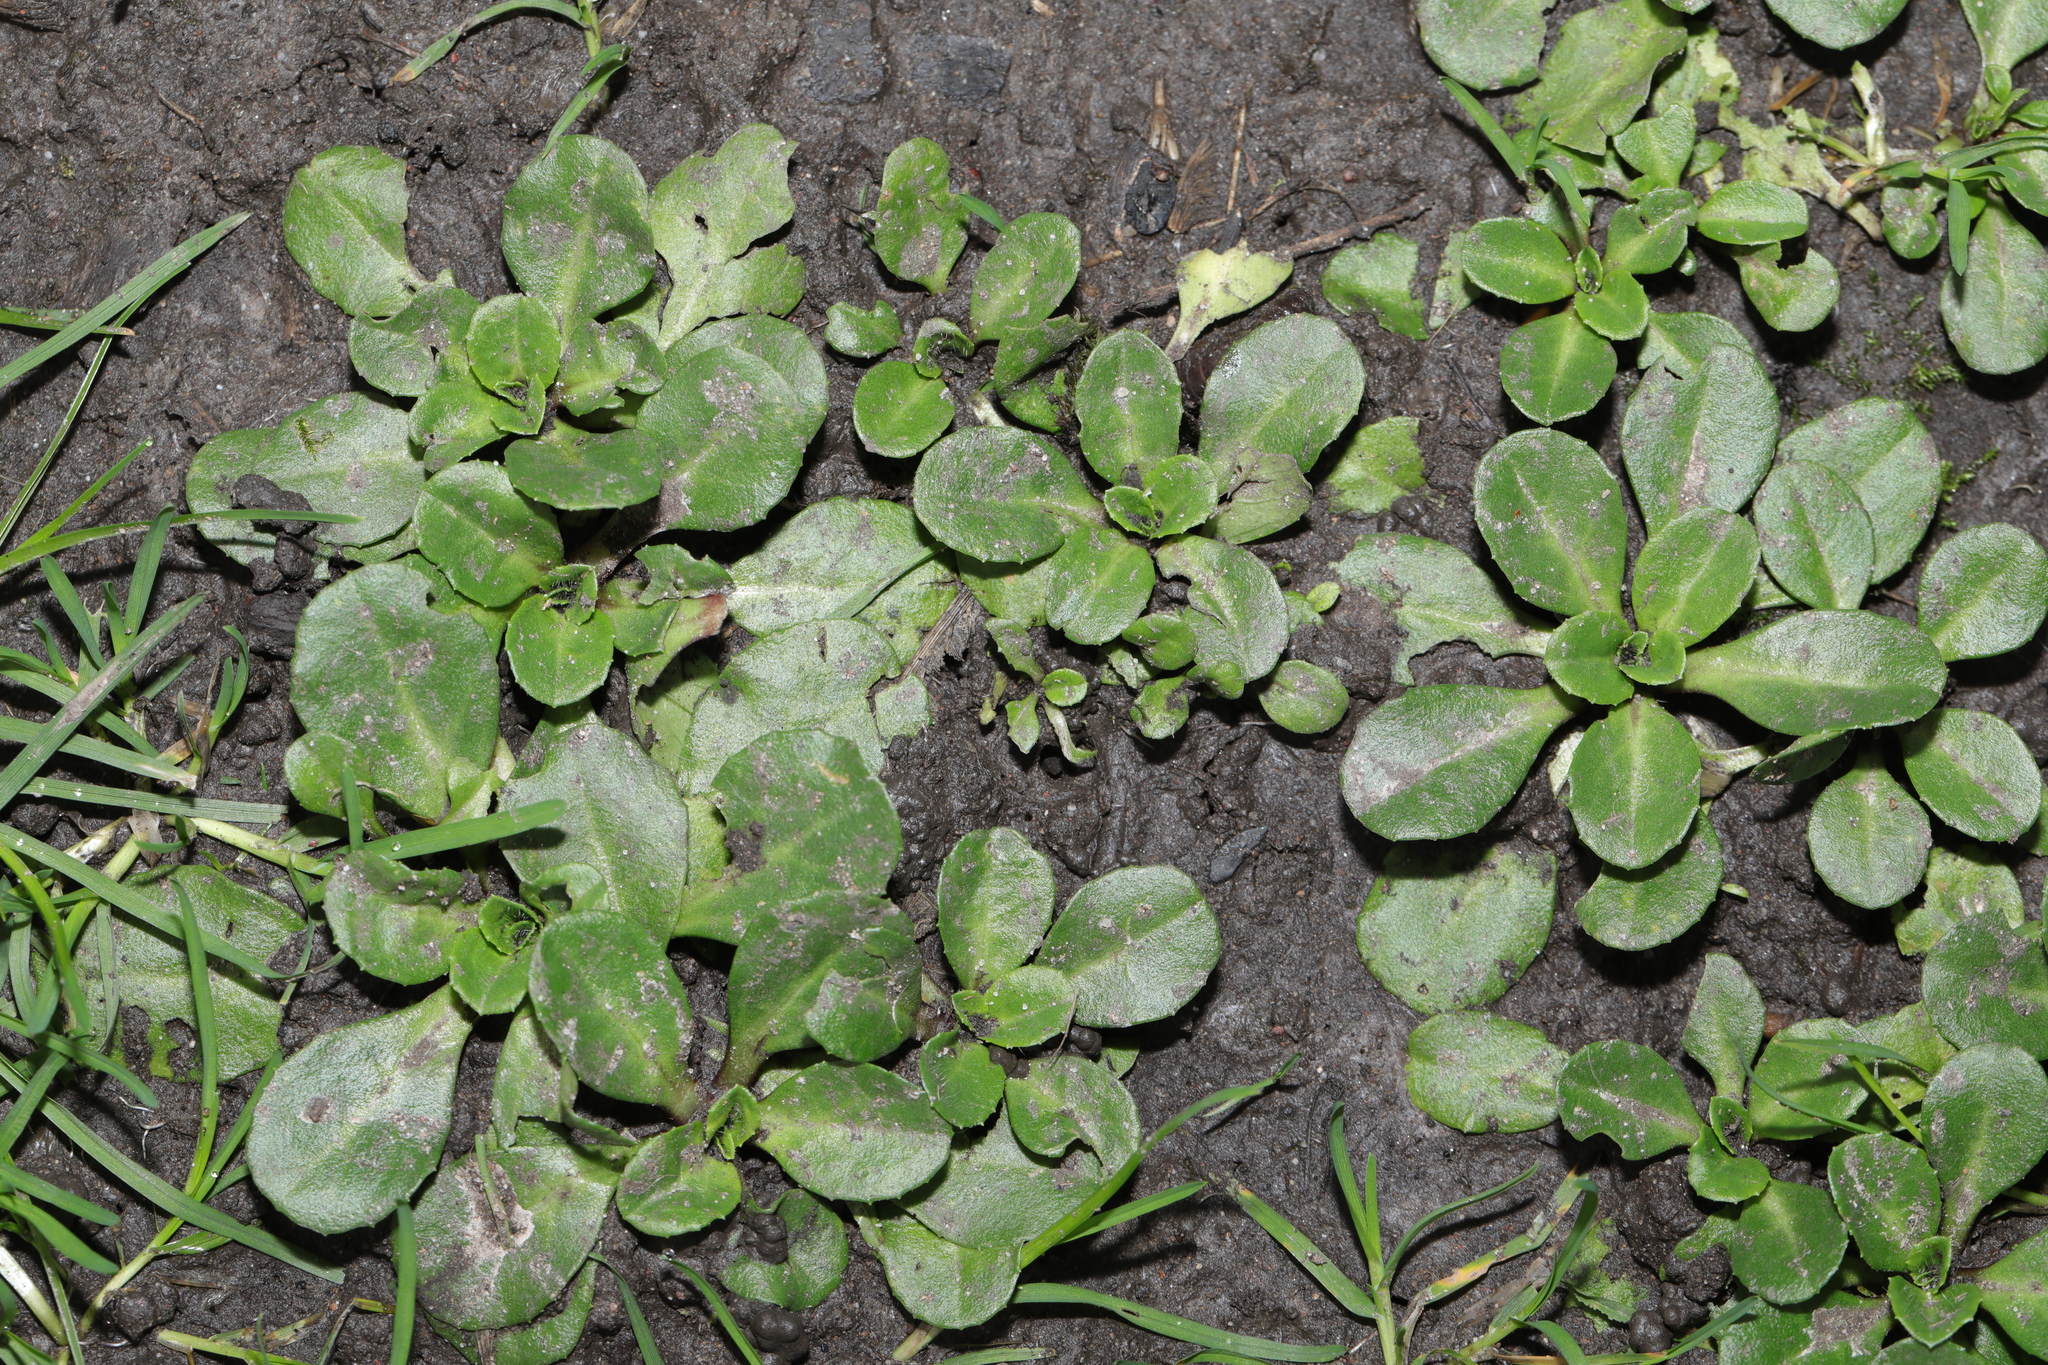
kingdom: Plantae
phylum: Tracheophyta
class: Magnoliopsida
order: Asterales
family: Asteraceae
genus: Bellis
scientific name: Bellis perennis
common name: Lawndaisy
